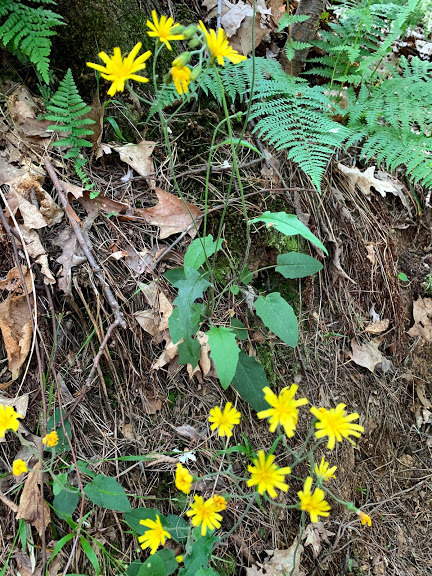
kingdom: Plantae
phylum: Tracheophyta
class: Magnoliopsida
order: Asterales
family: Asteraceae
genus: Hieracium
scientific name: Hieracium murorum
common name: Wall hawkweed
